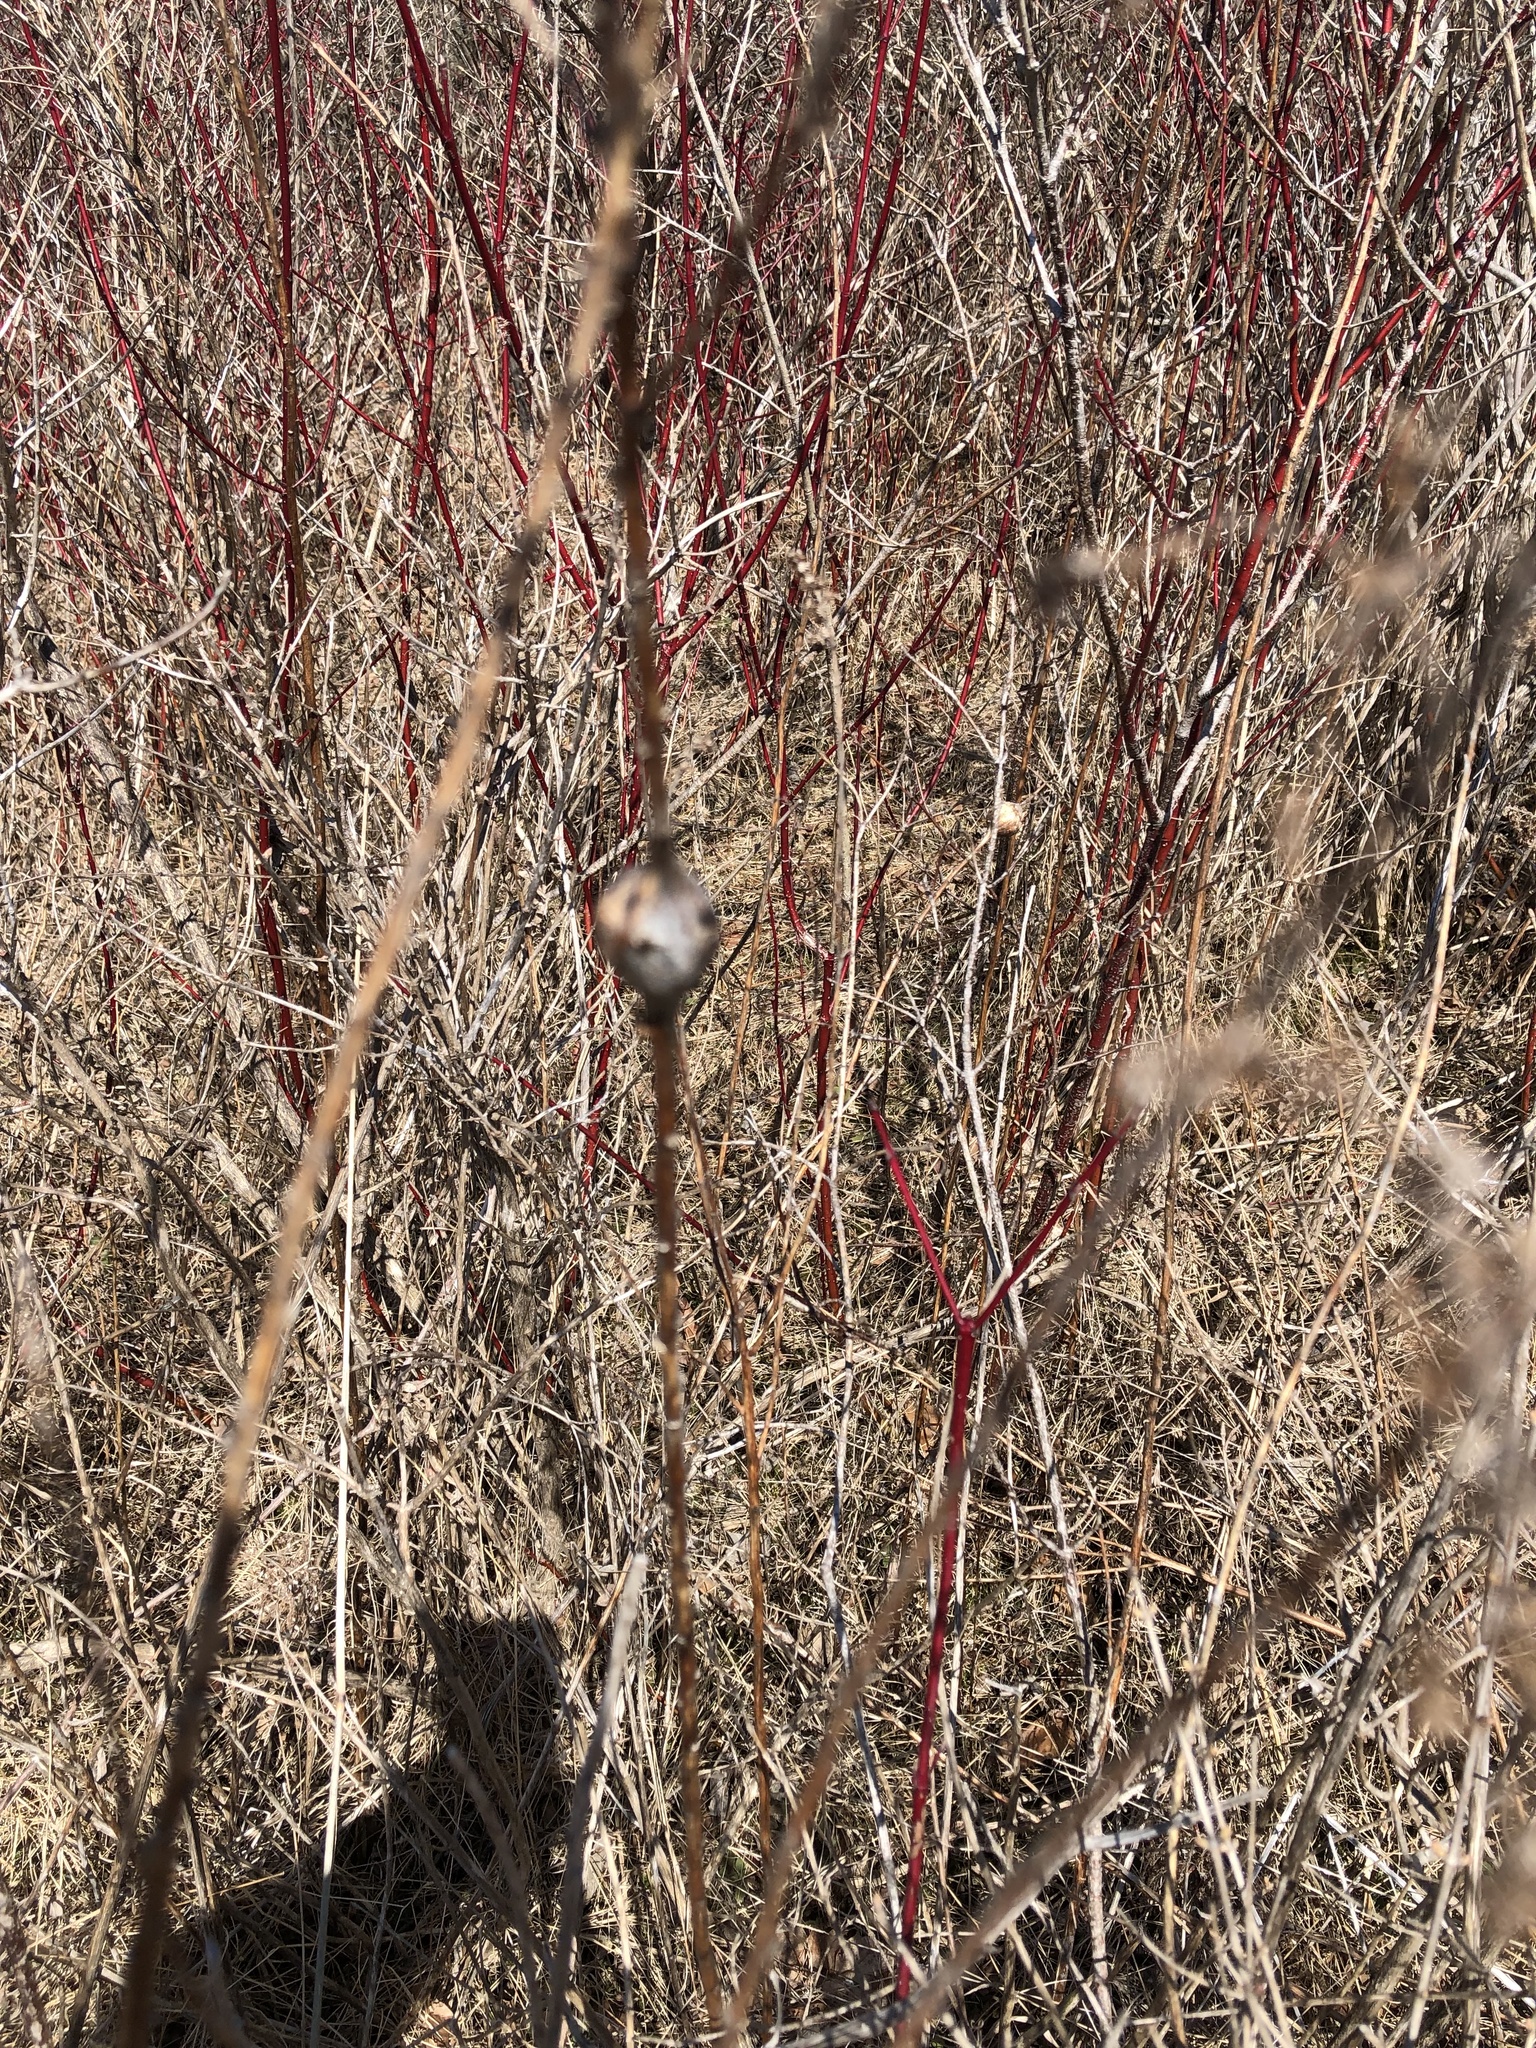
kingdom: Animalia
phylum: Arthropoda
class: Insecta
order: Diptera
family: Tephritidae
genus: Eurosta
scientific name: Eurosta solidaginis
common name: Goldenrod gall fly
